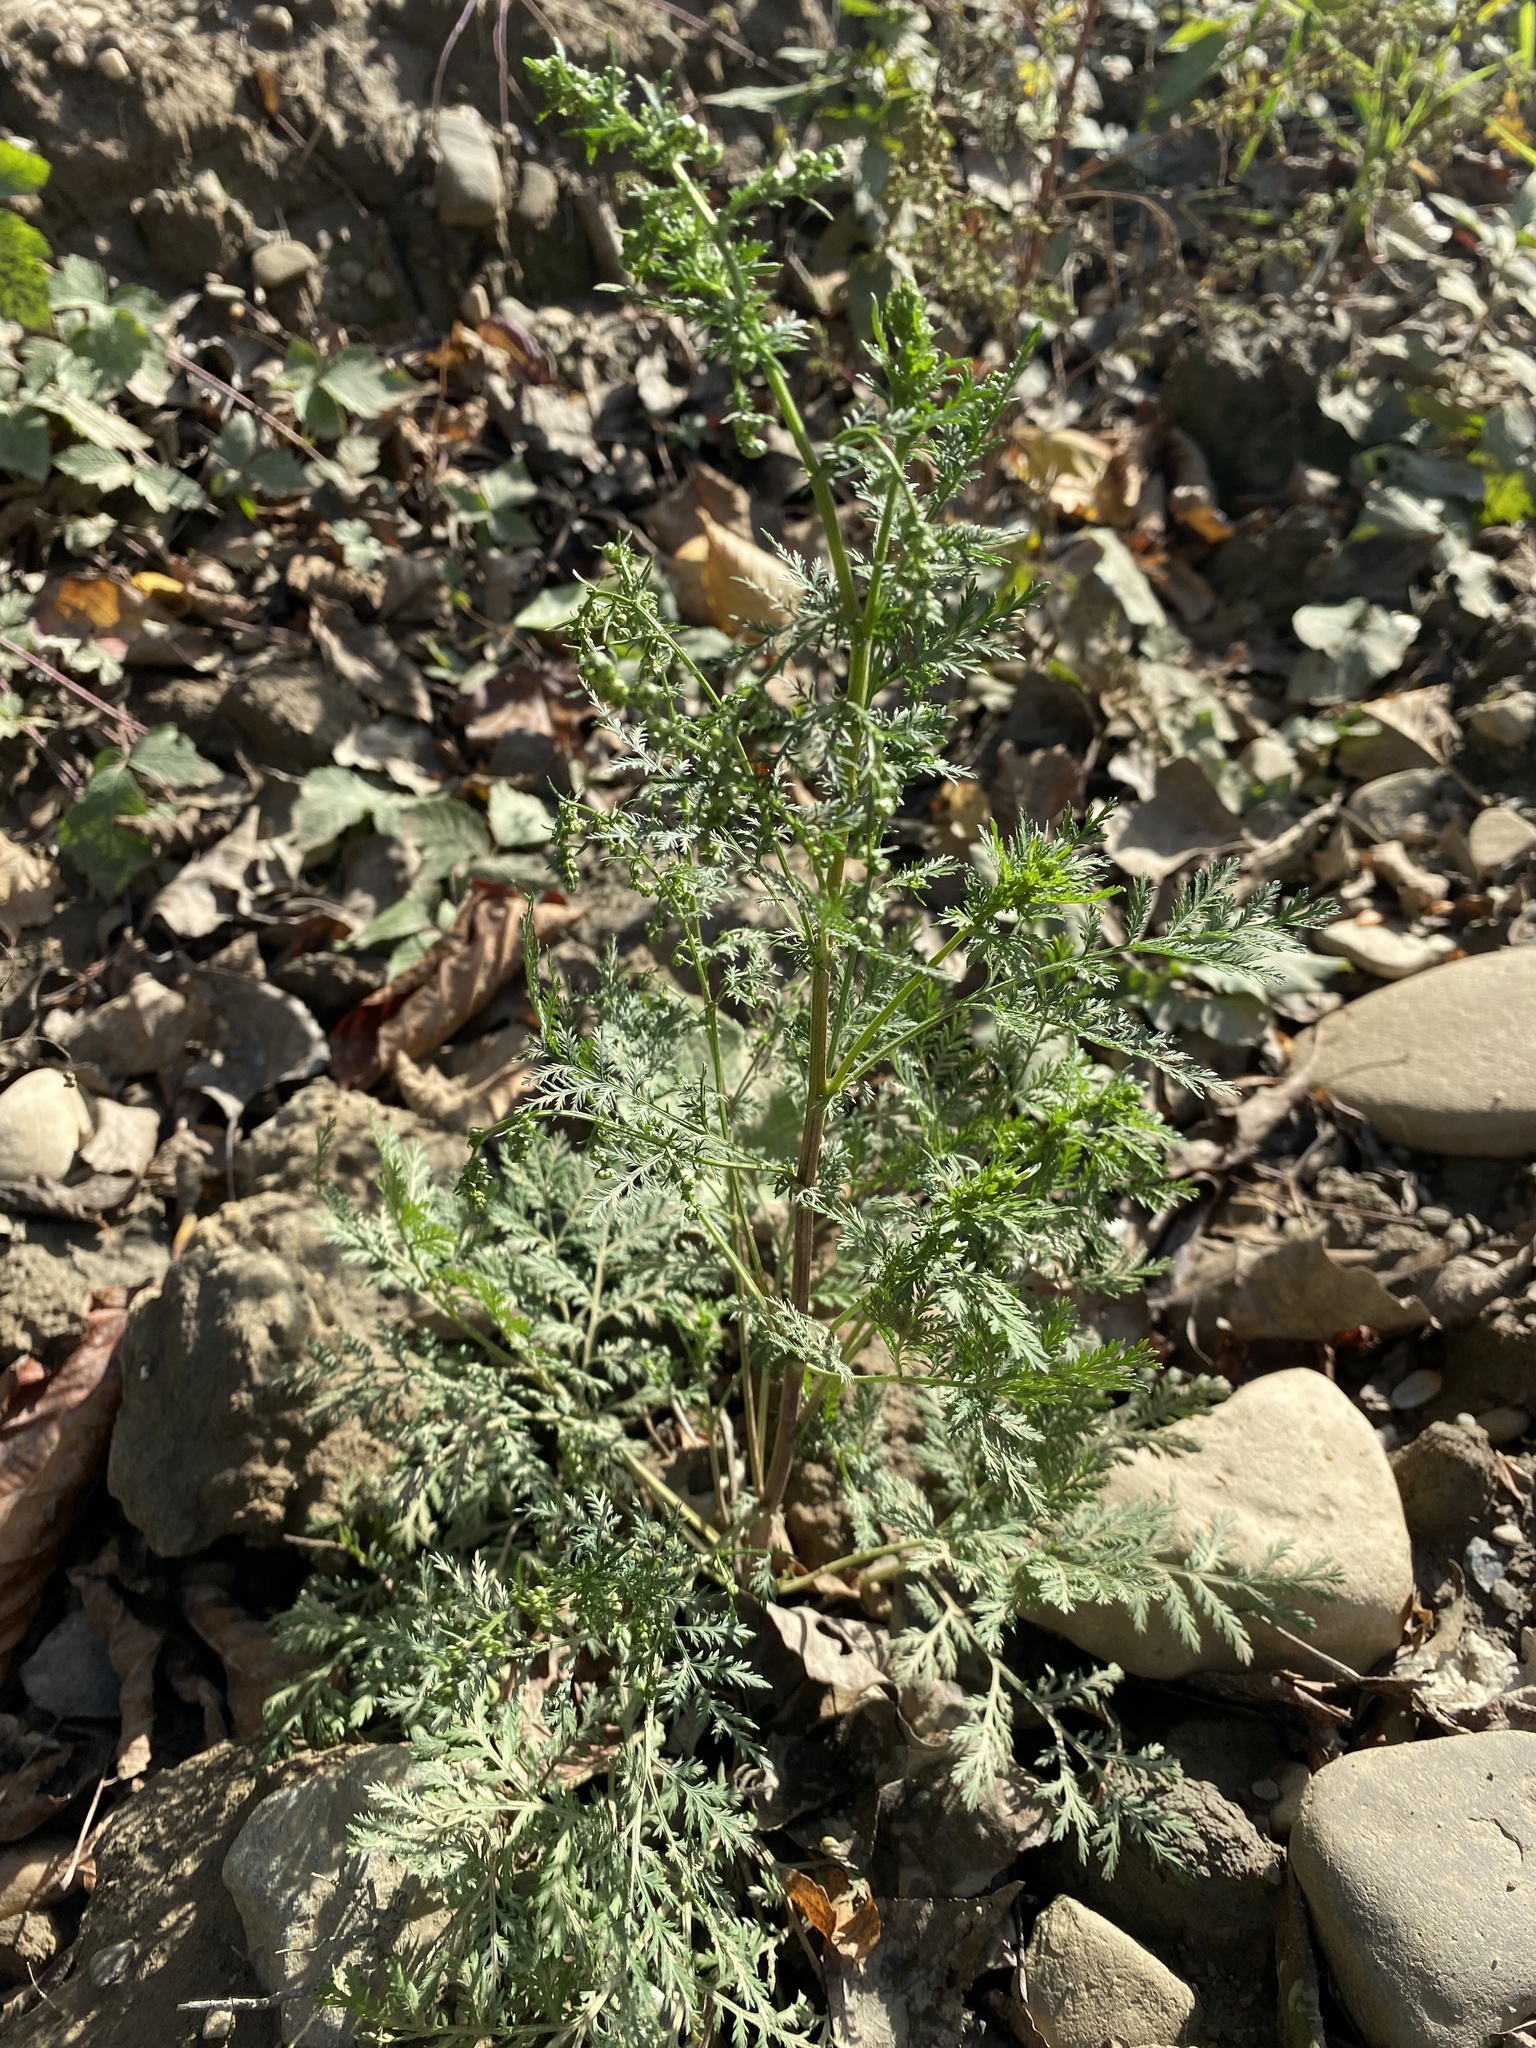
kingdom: Plantae
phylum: Tracheophyta
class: Magnoliopsida
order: Asterales
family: Asteraceae
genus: Artemisia
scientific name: Artemisia annua
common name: Sweet sagewort
